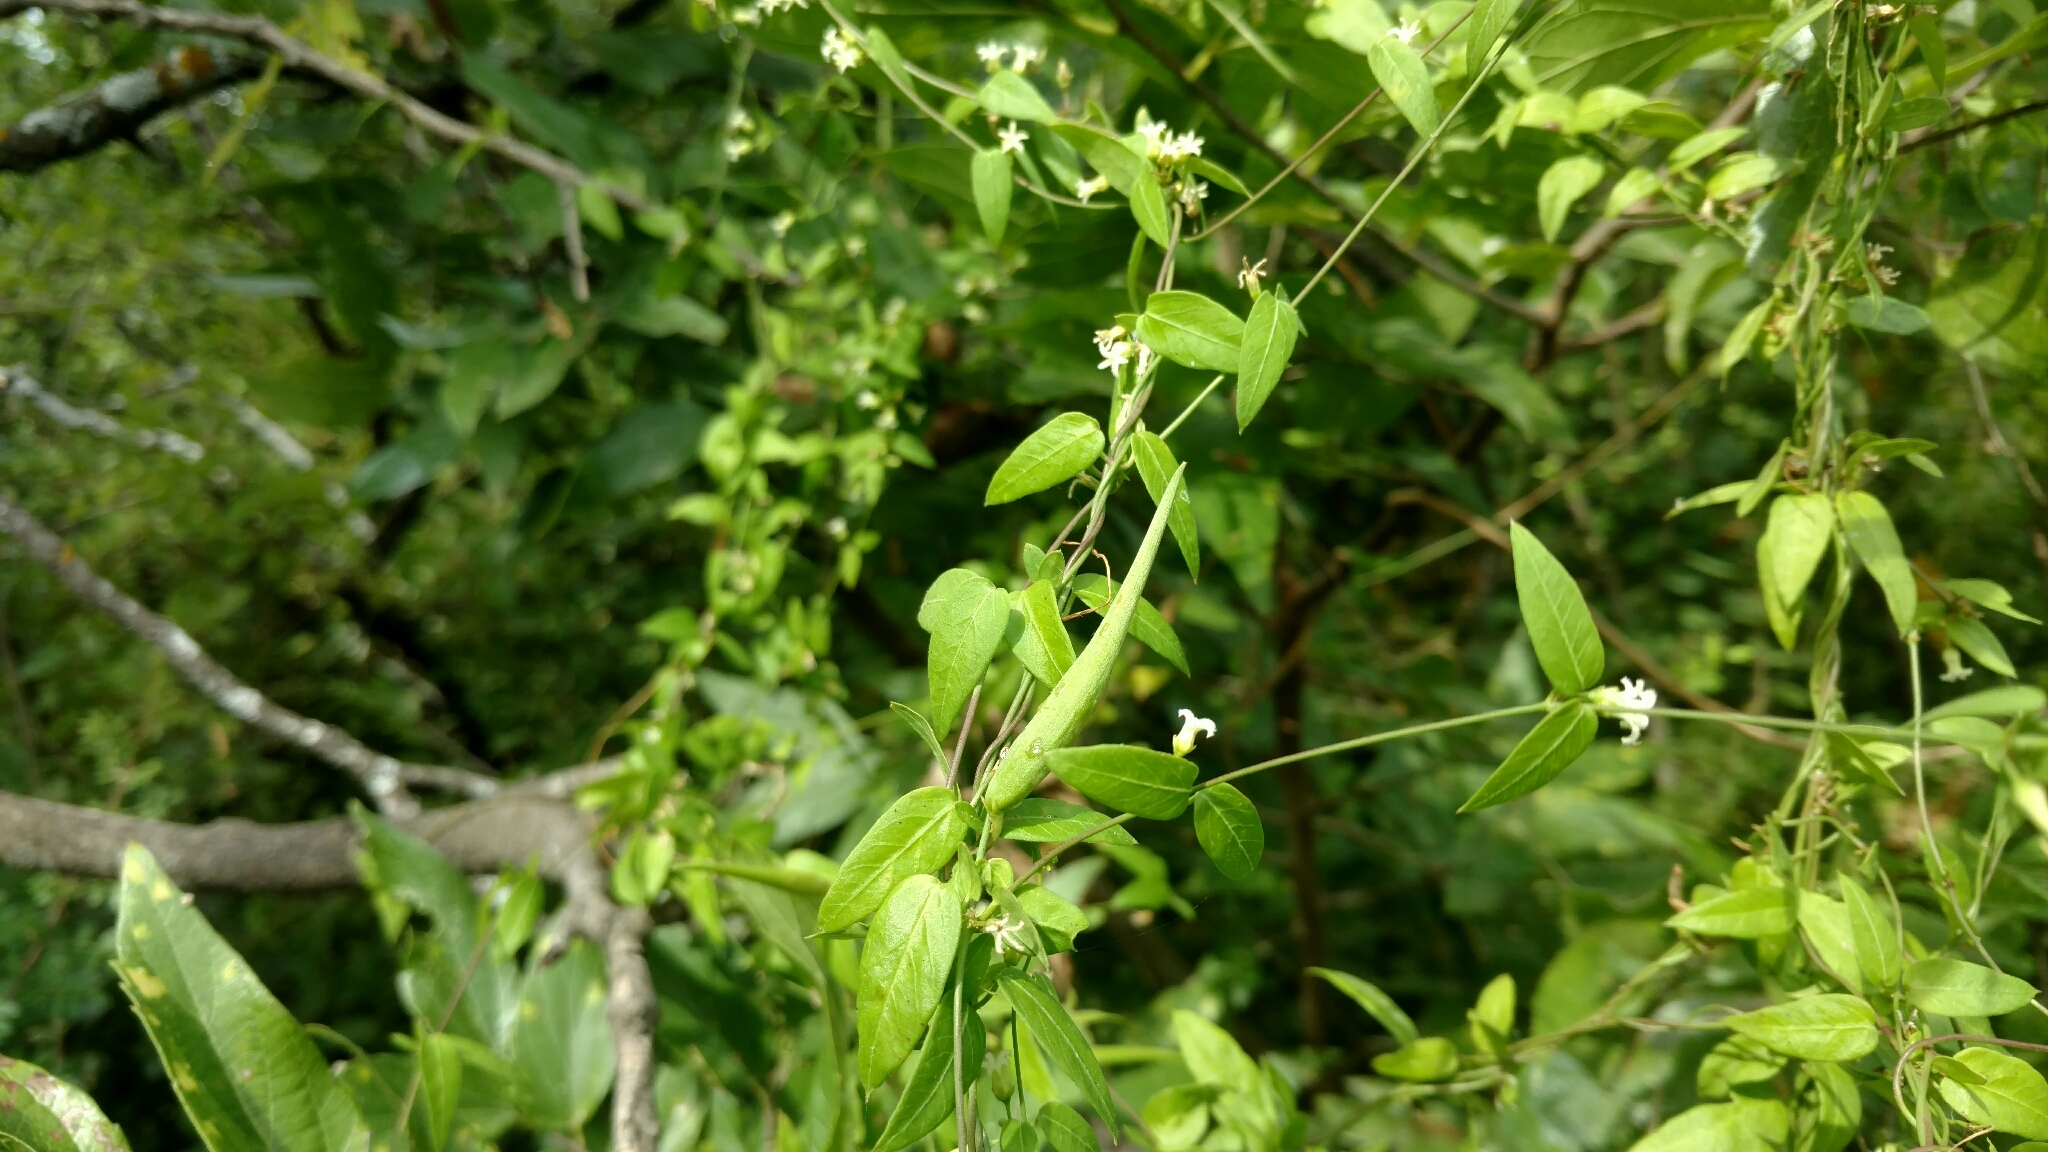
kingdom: Plantae
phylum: Tracheophyta
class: Magnoliopsida
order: Gentianales
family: Apocynaceae
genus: Metastelma
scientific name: Metastelma barbigerum
